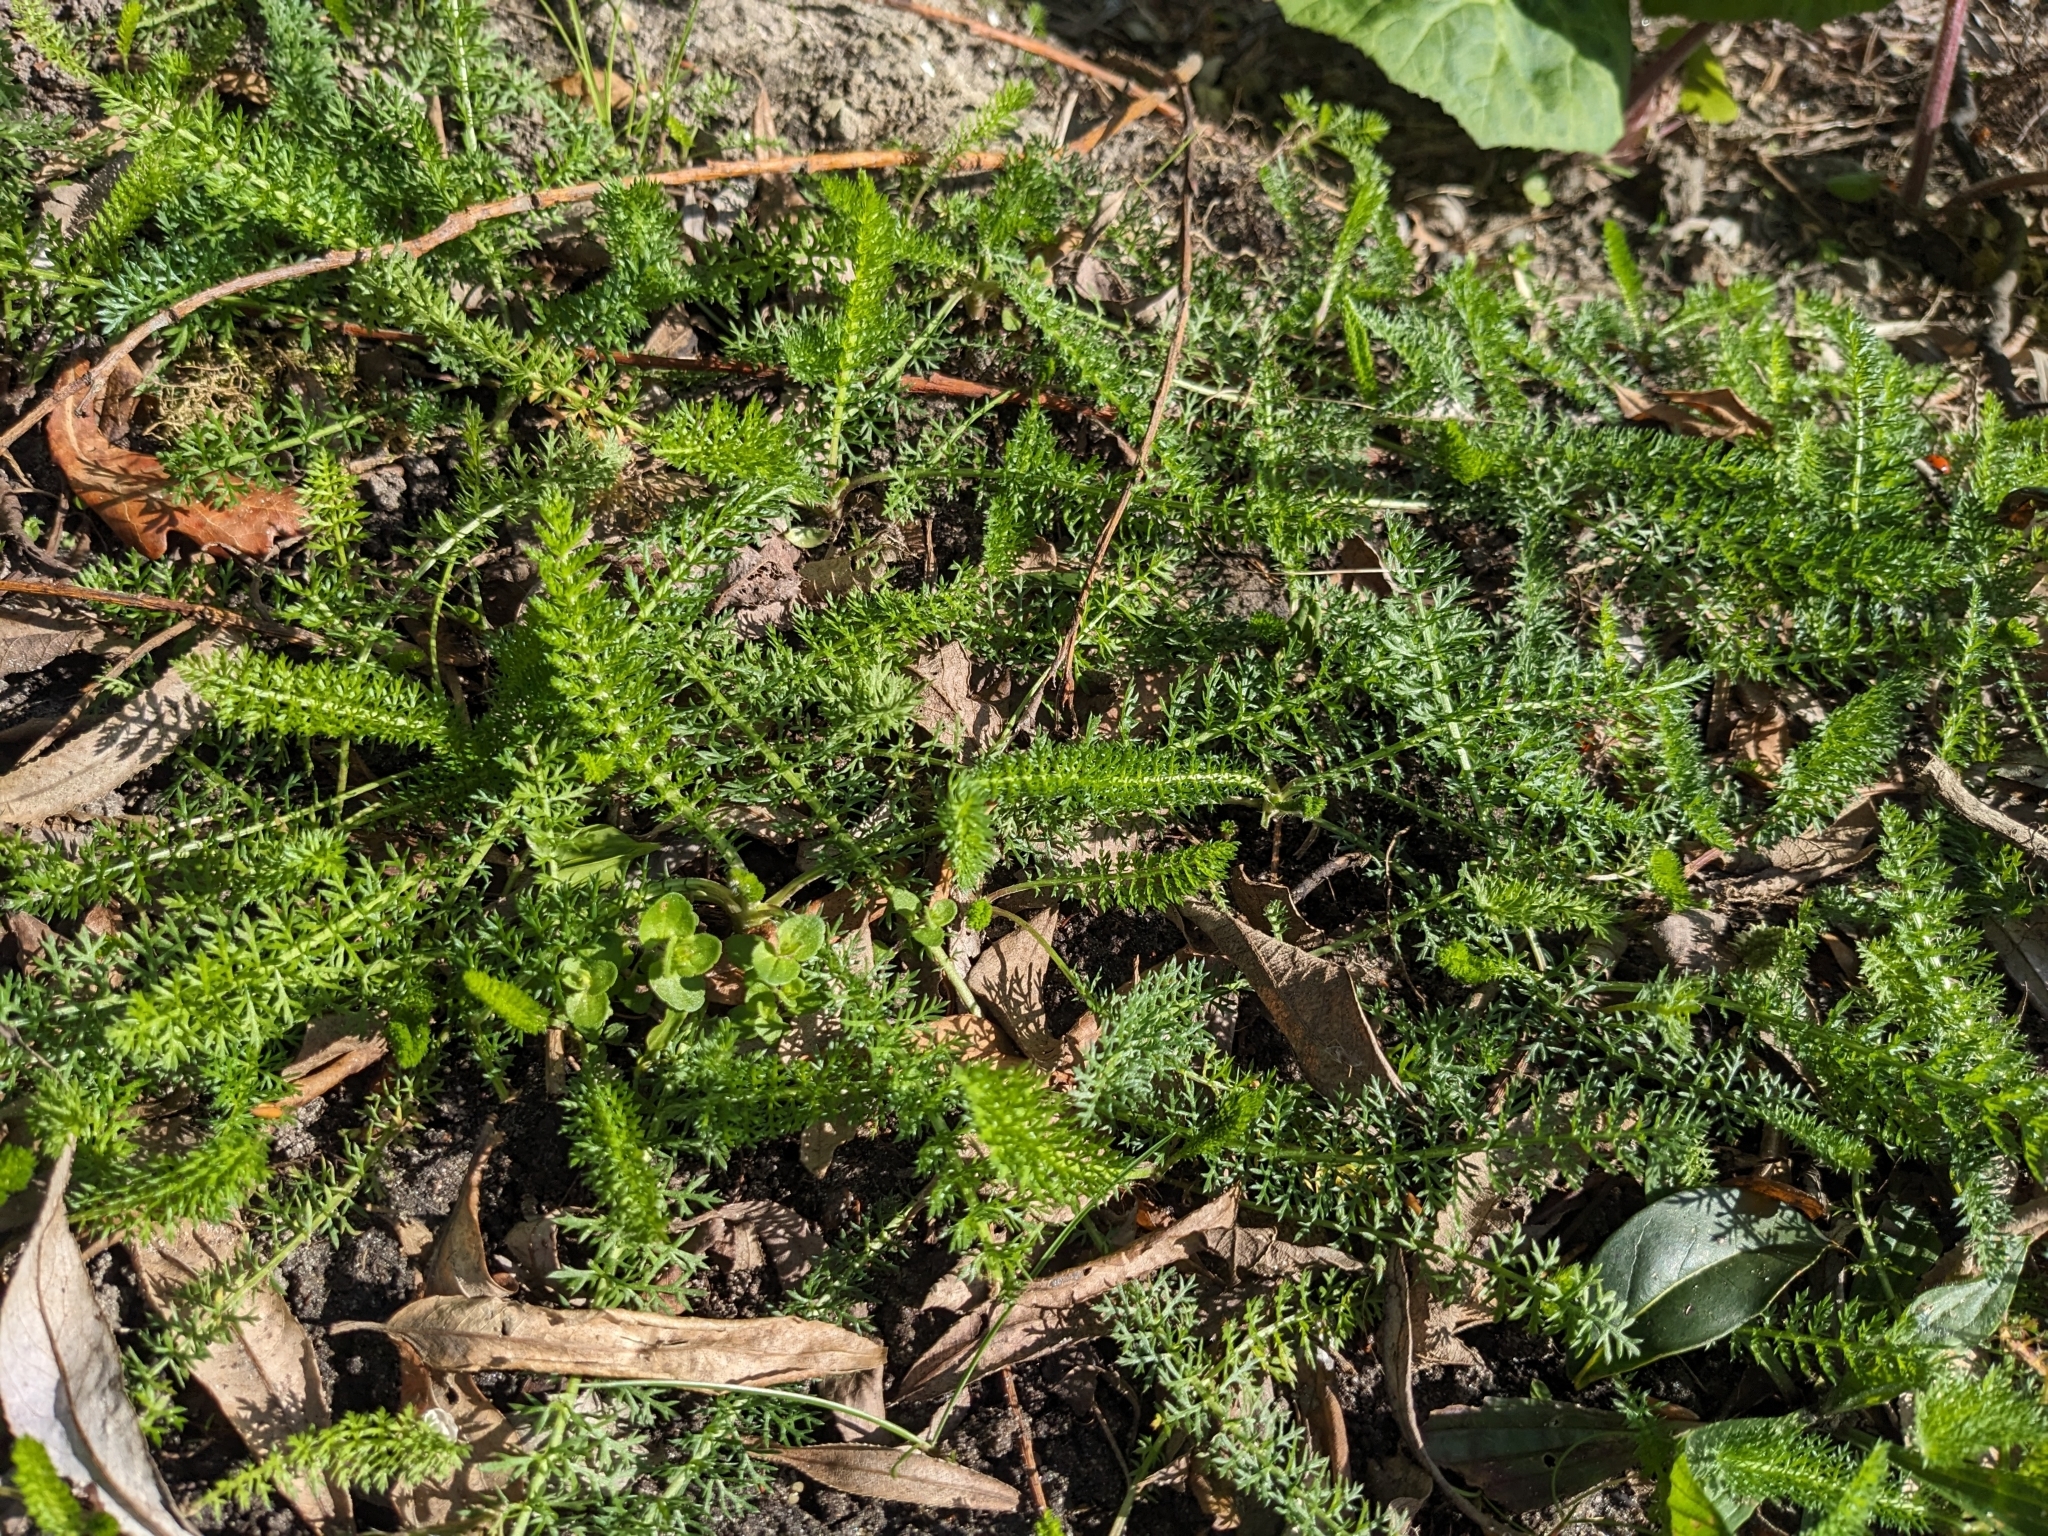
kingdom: Plantae
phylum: Tracheophyta
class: Magnoliopsida
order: Asterales
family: Asteraceae
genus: Achillea
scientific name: Achillea millefolium
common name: Yarrow
